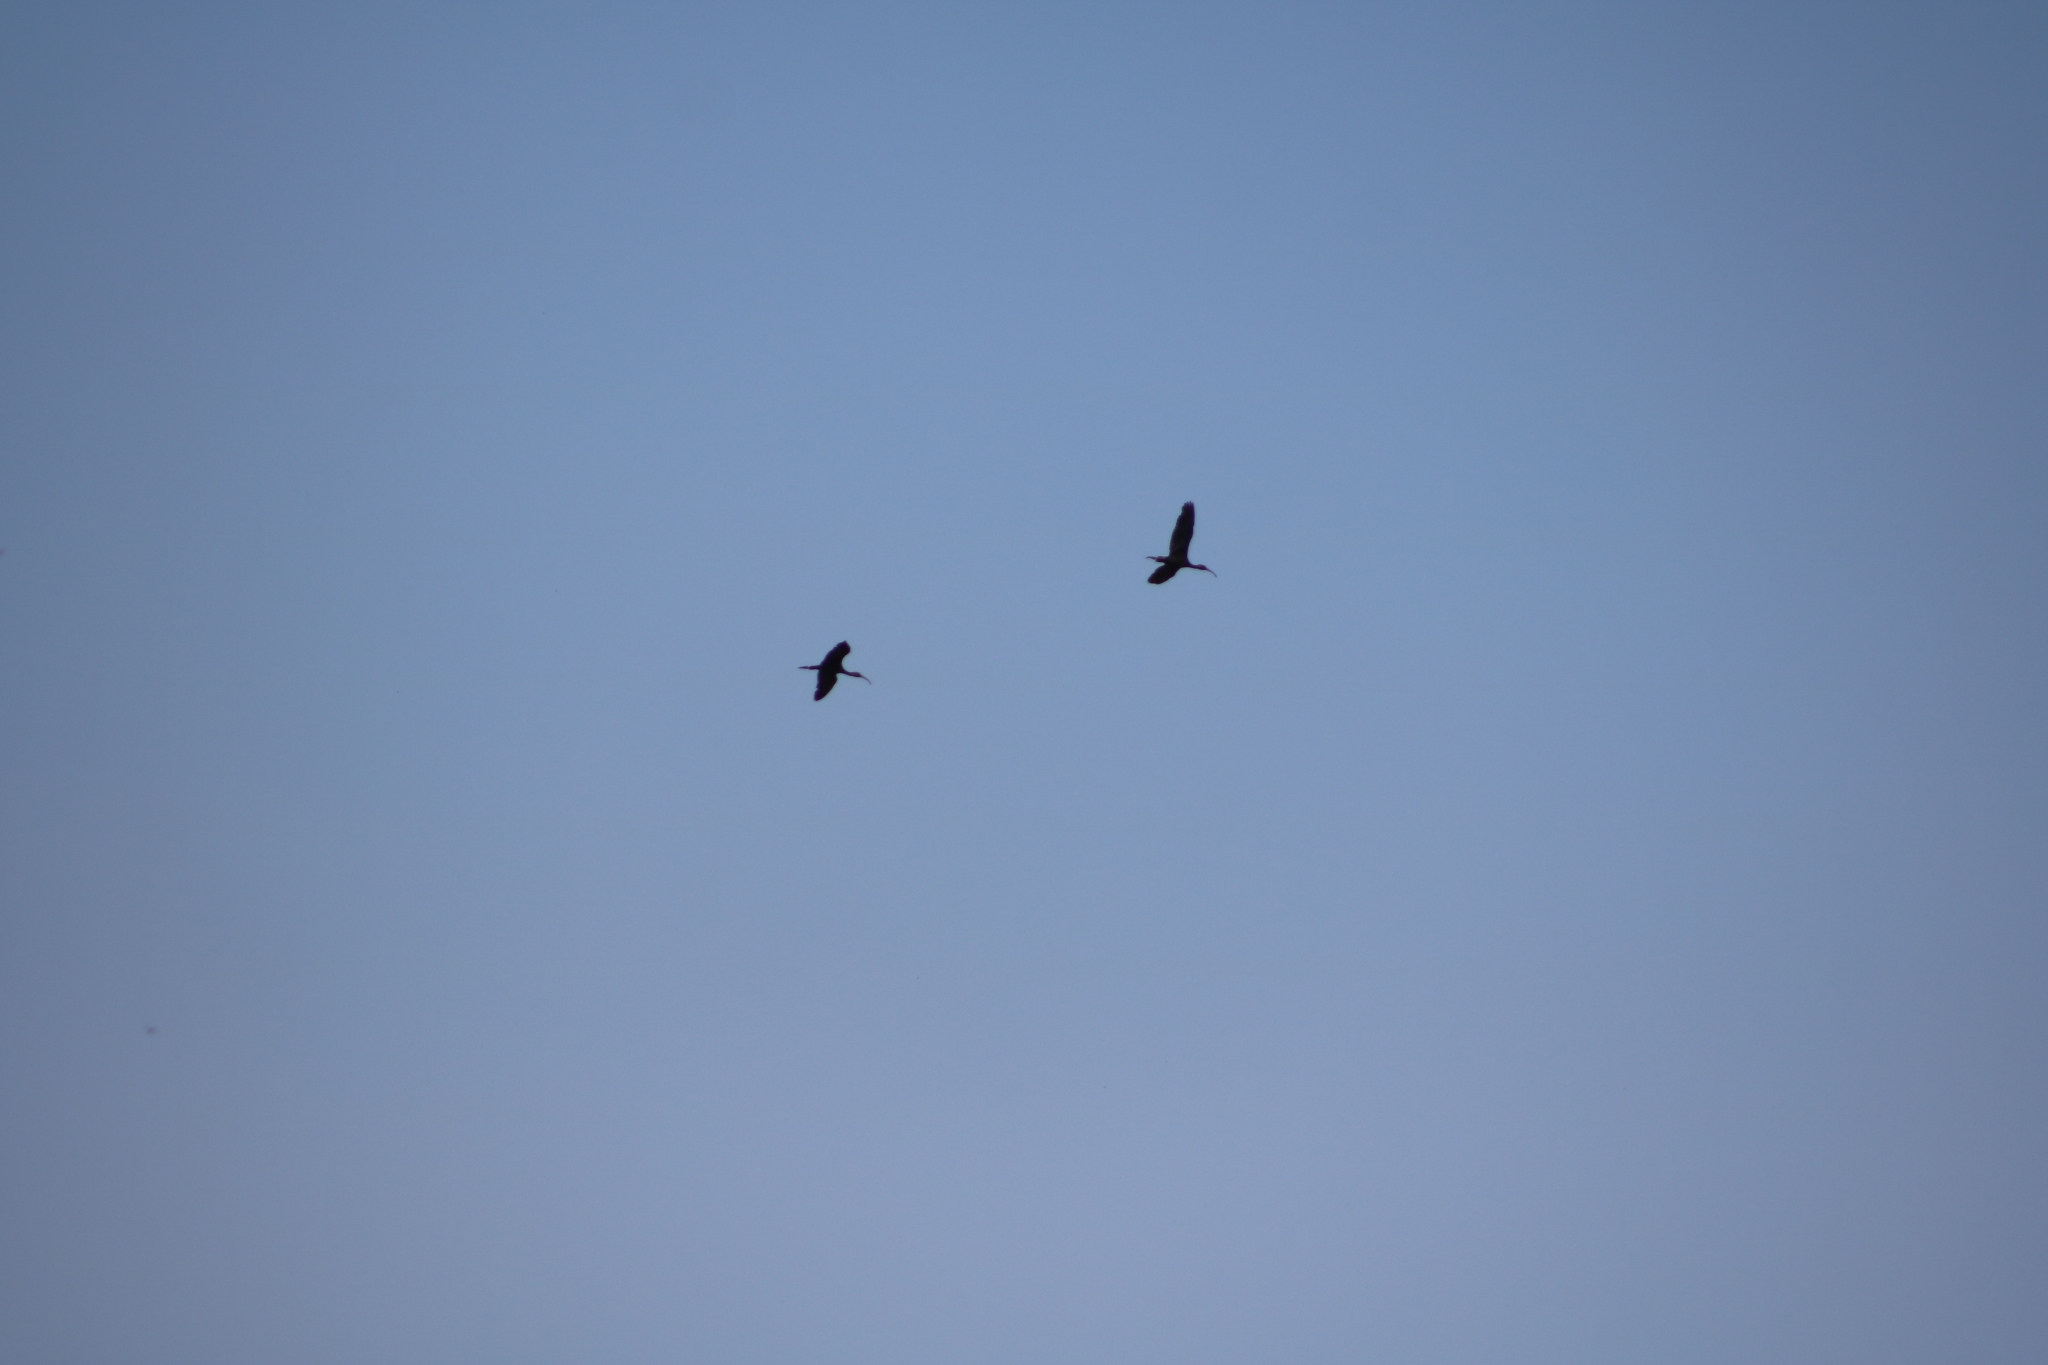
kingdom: Animalia
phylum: Chordata
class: Aves
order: Pelecaniformes
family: Threskiornithidae
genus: Plegadis
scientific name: Plegadis falcinellus
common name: Glossy ibis
